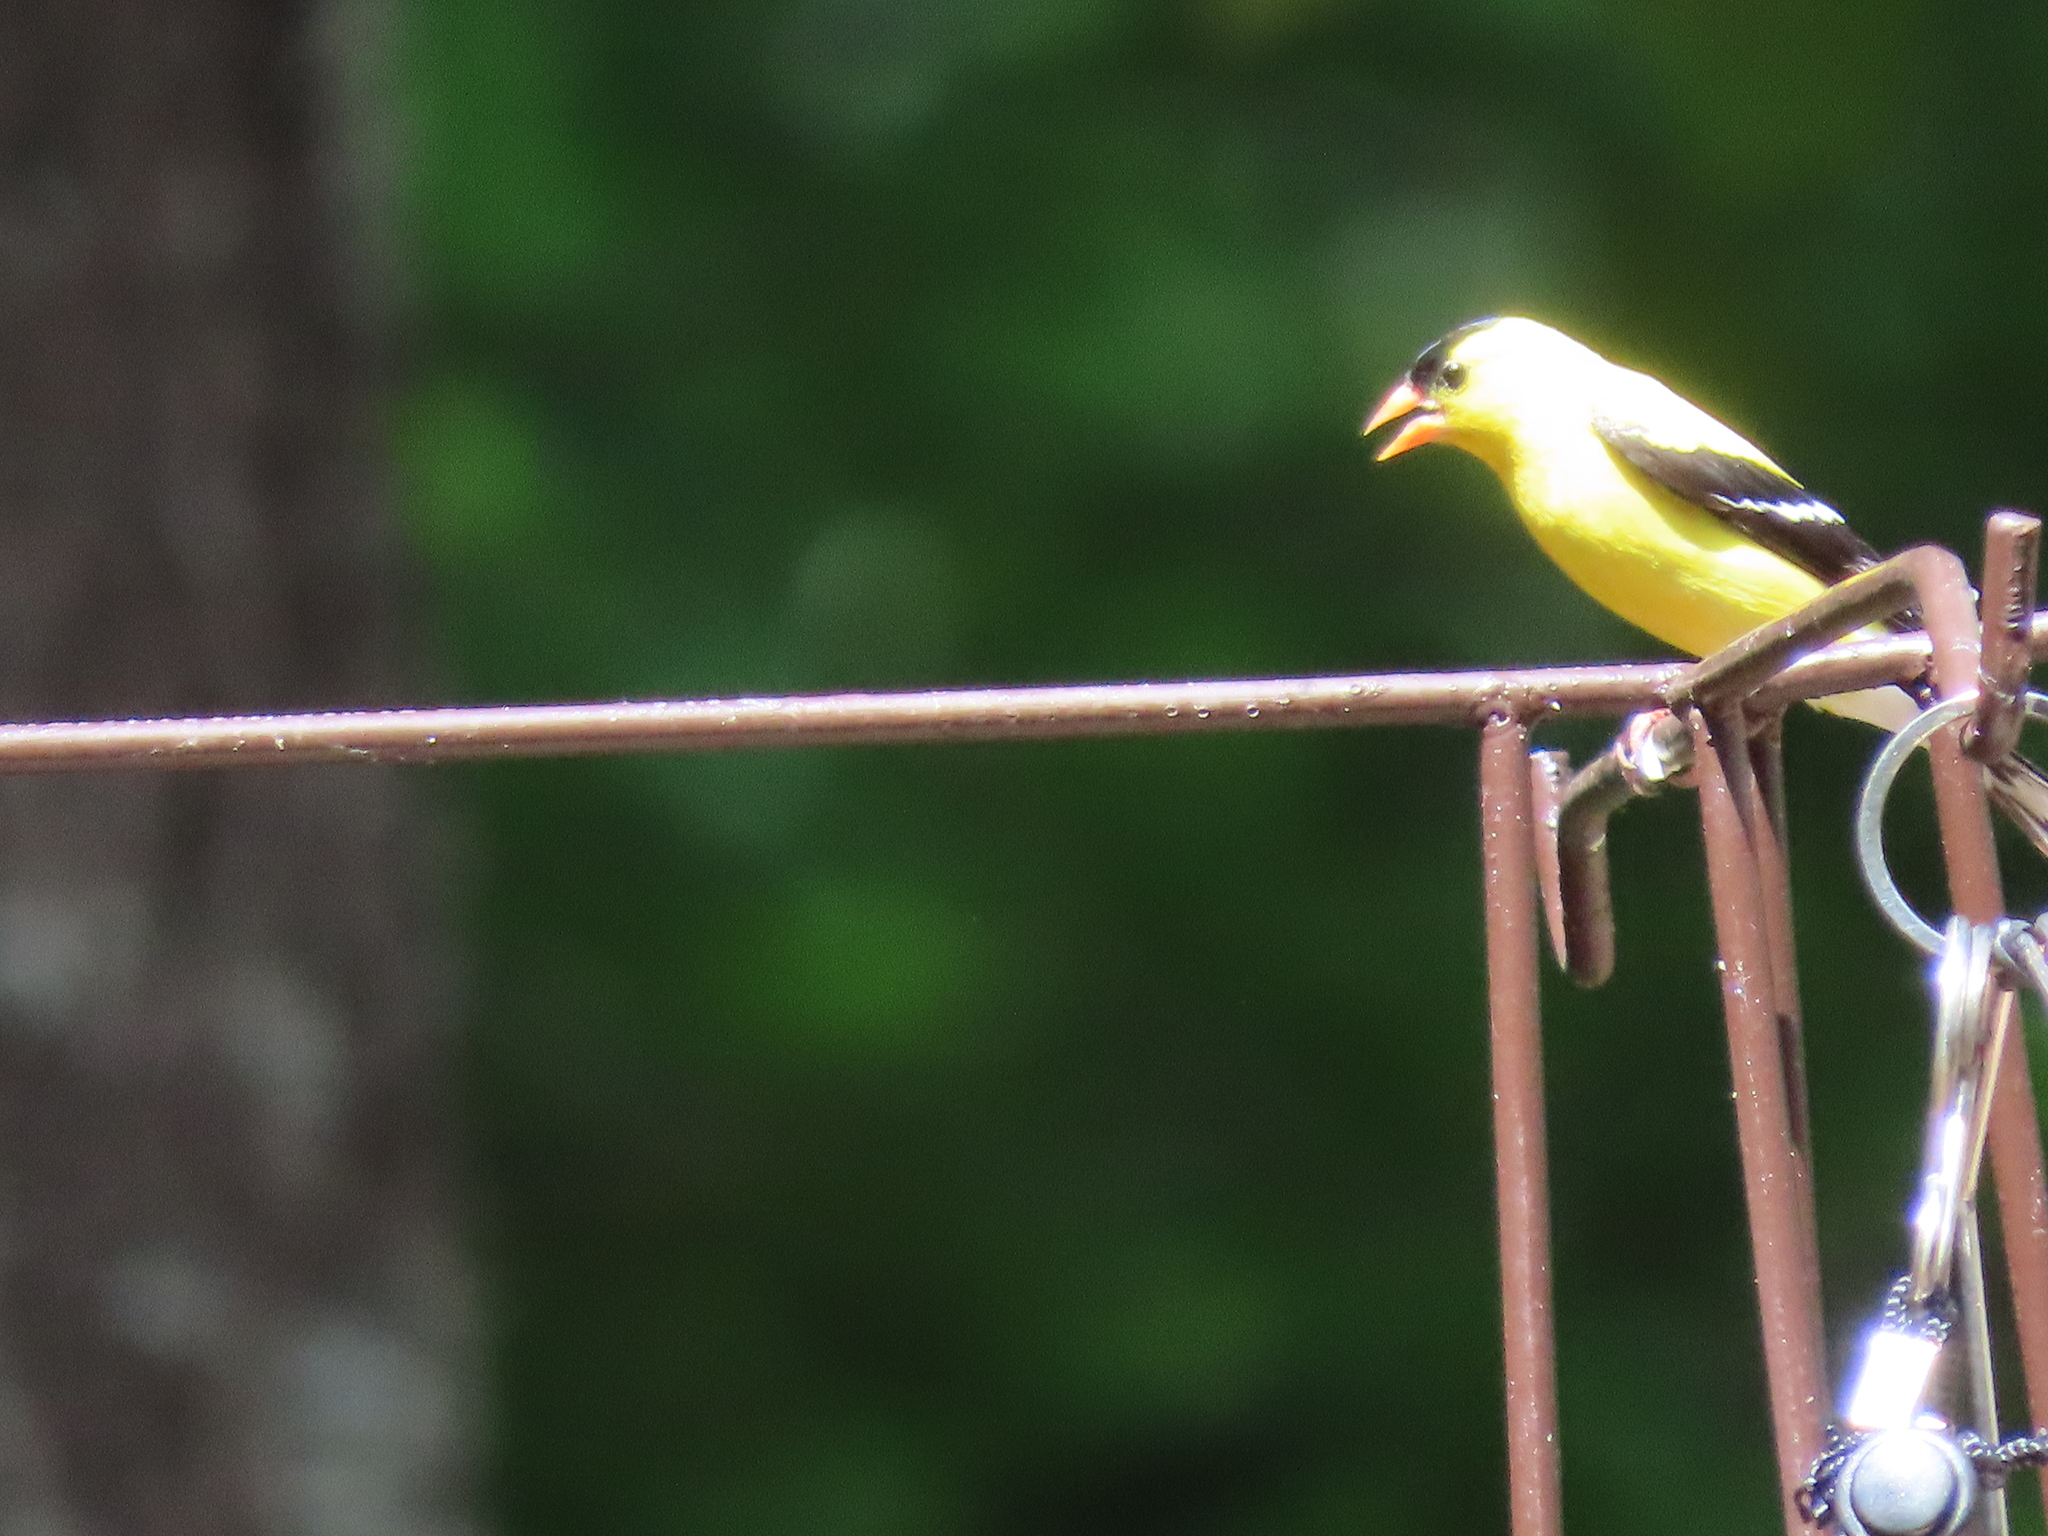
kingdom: Animalia
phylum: Chordata
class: Aves
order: Passeriformes
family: Fringillidae
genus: Spinus
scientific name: Spinus tristis
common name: American goldfinch
